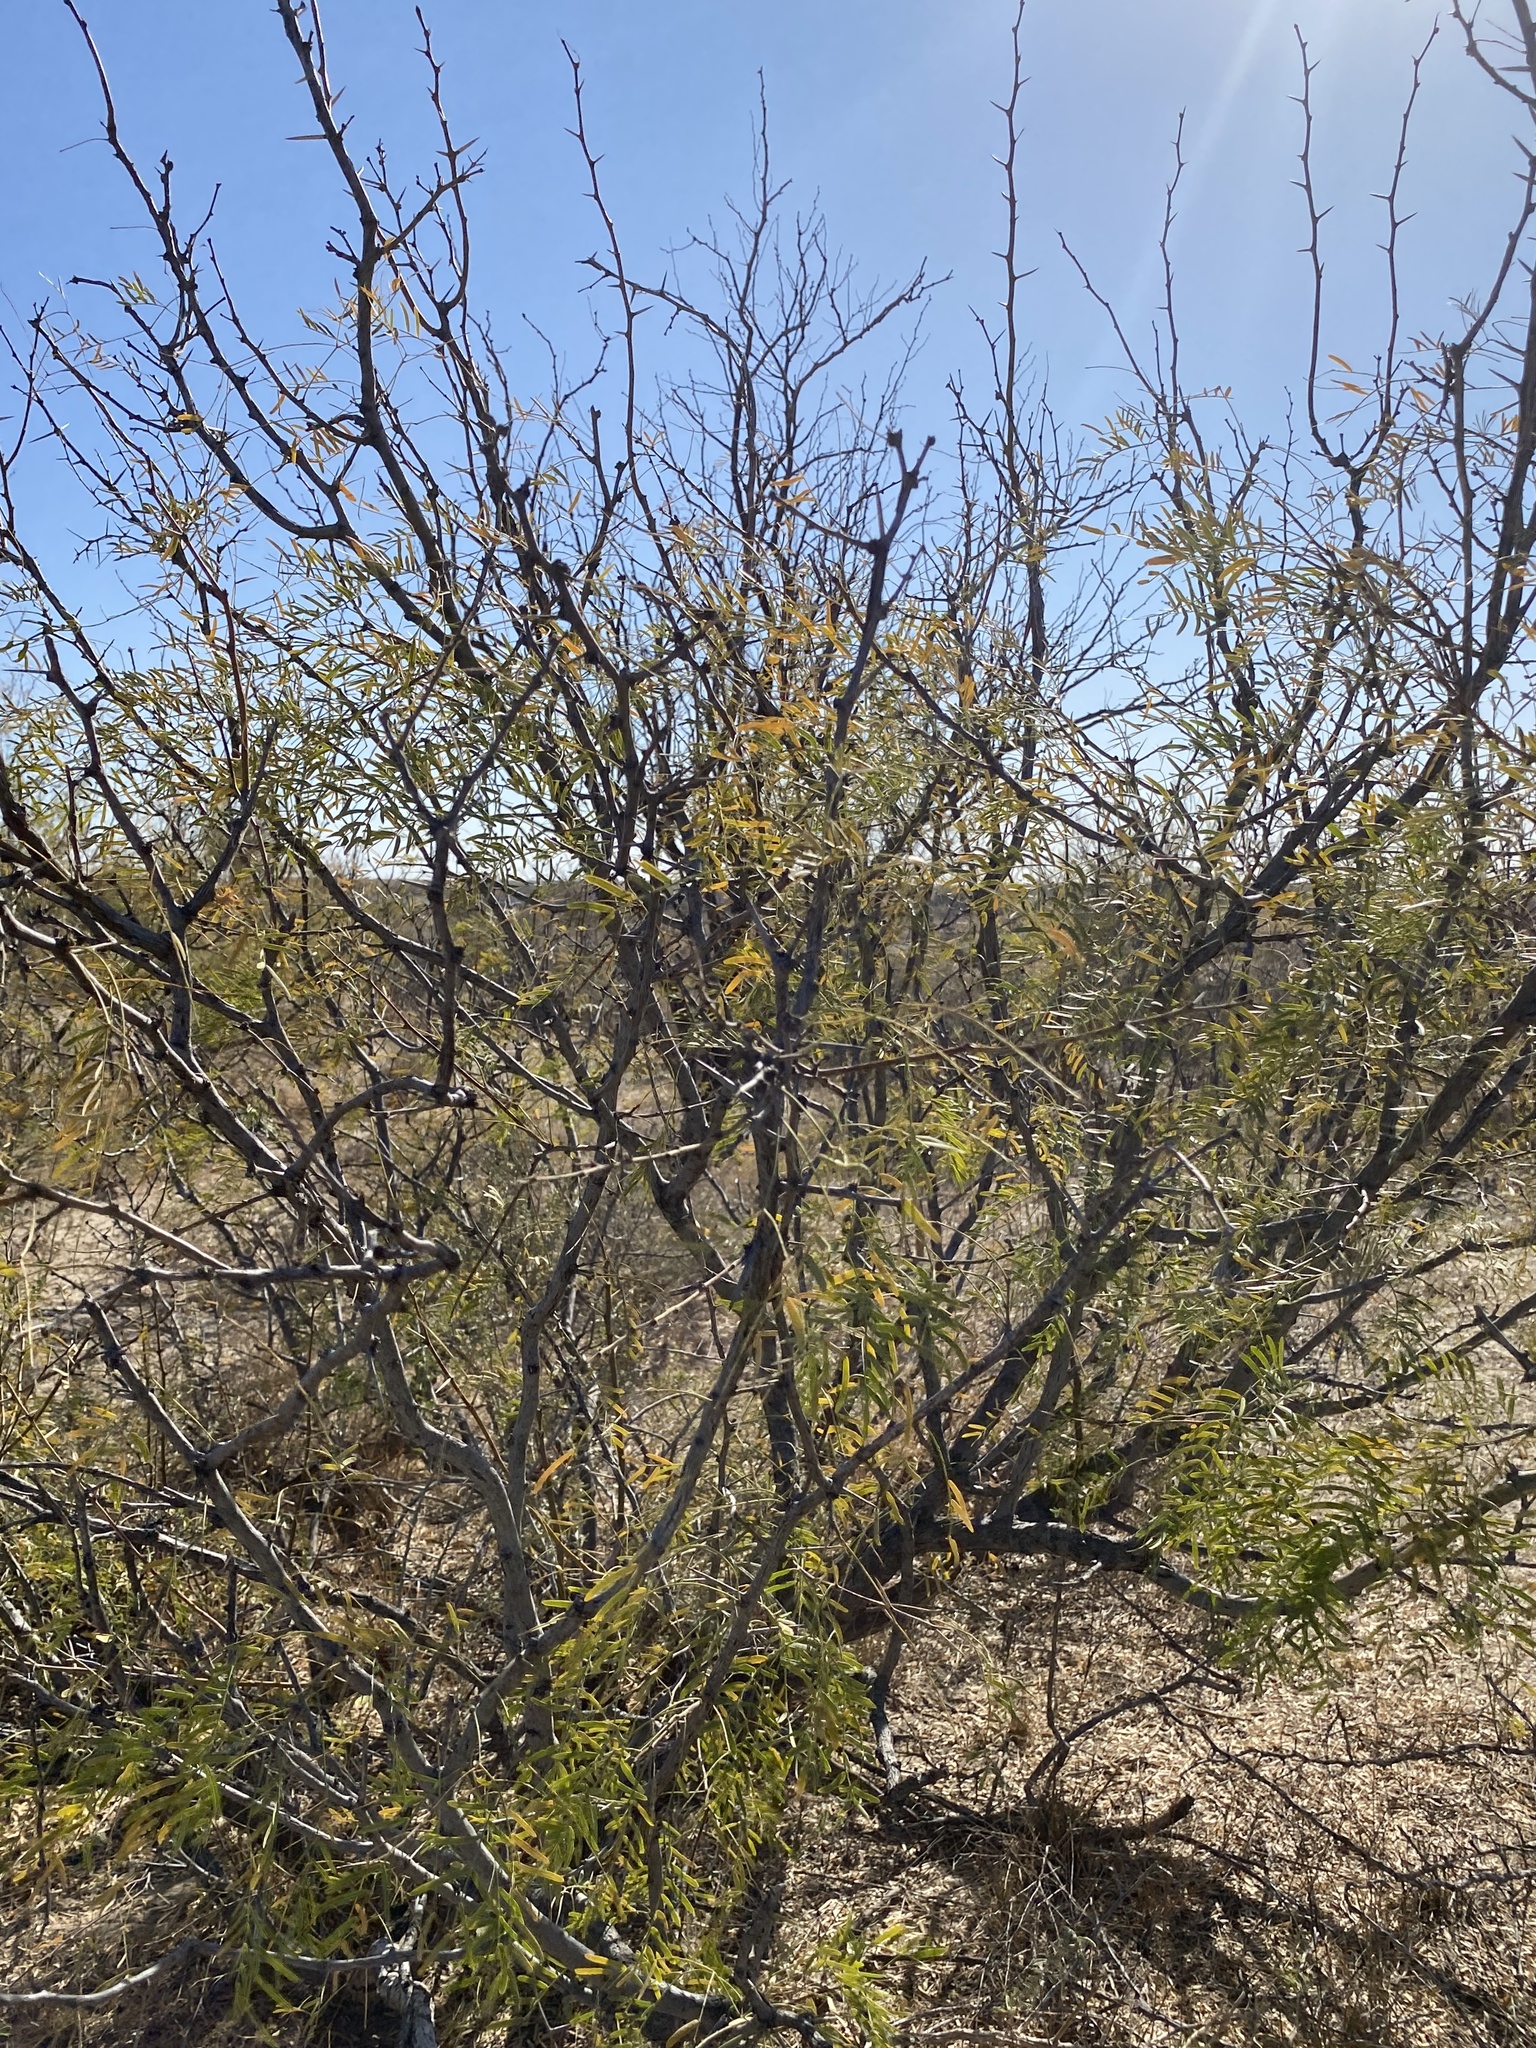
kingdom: Plantae
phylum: Tracheophyta
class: Magnoliopsida
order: Fabales
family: Fabaceae
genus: Prosopis
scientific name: Prosopis glandulosa
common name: Honey mesquite
